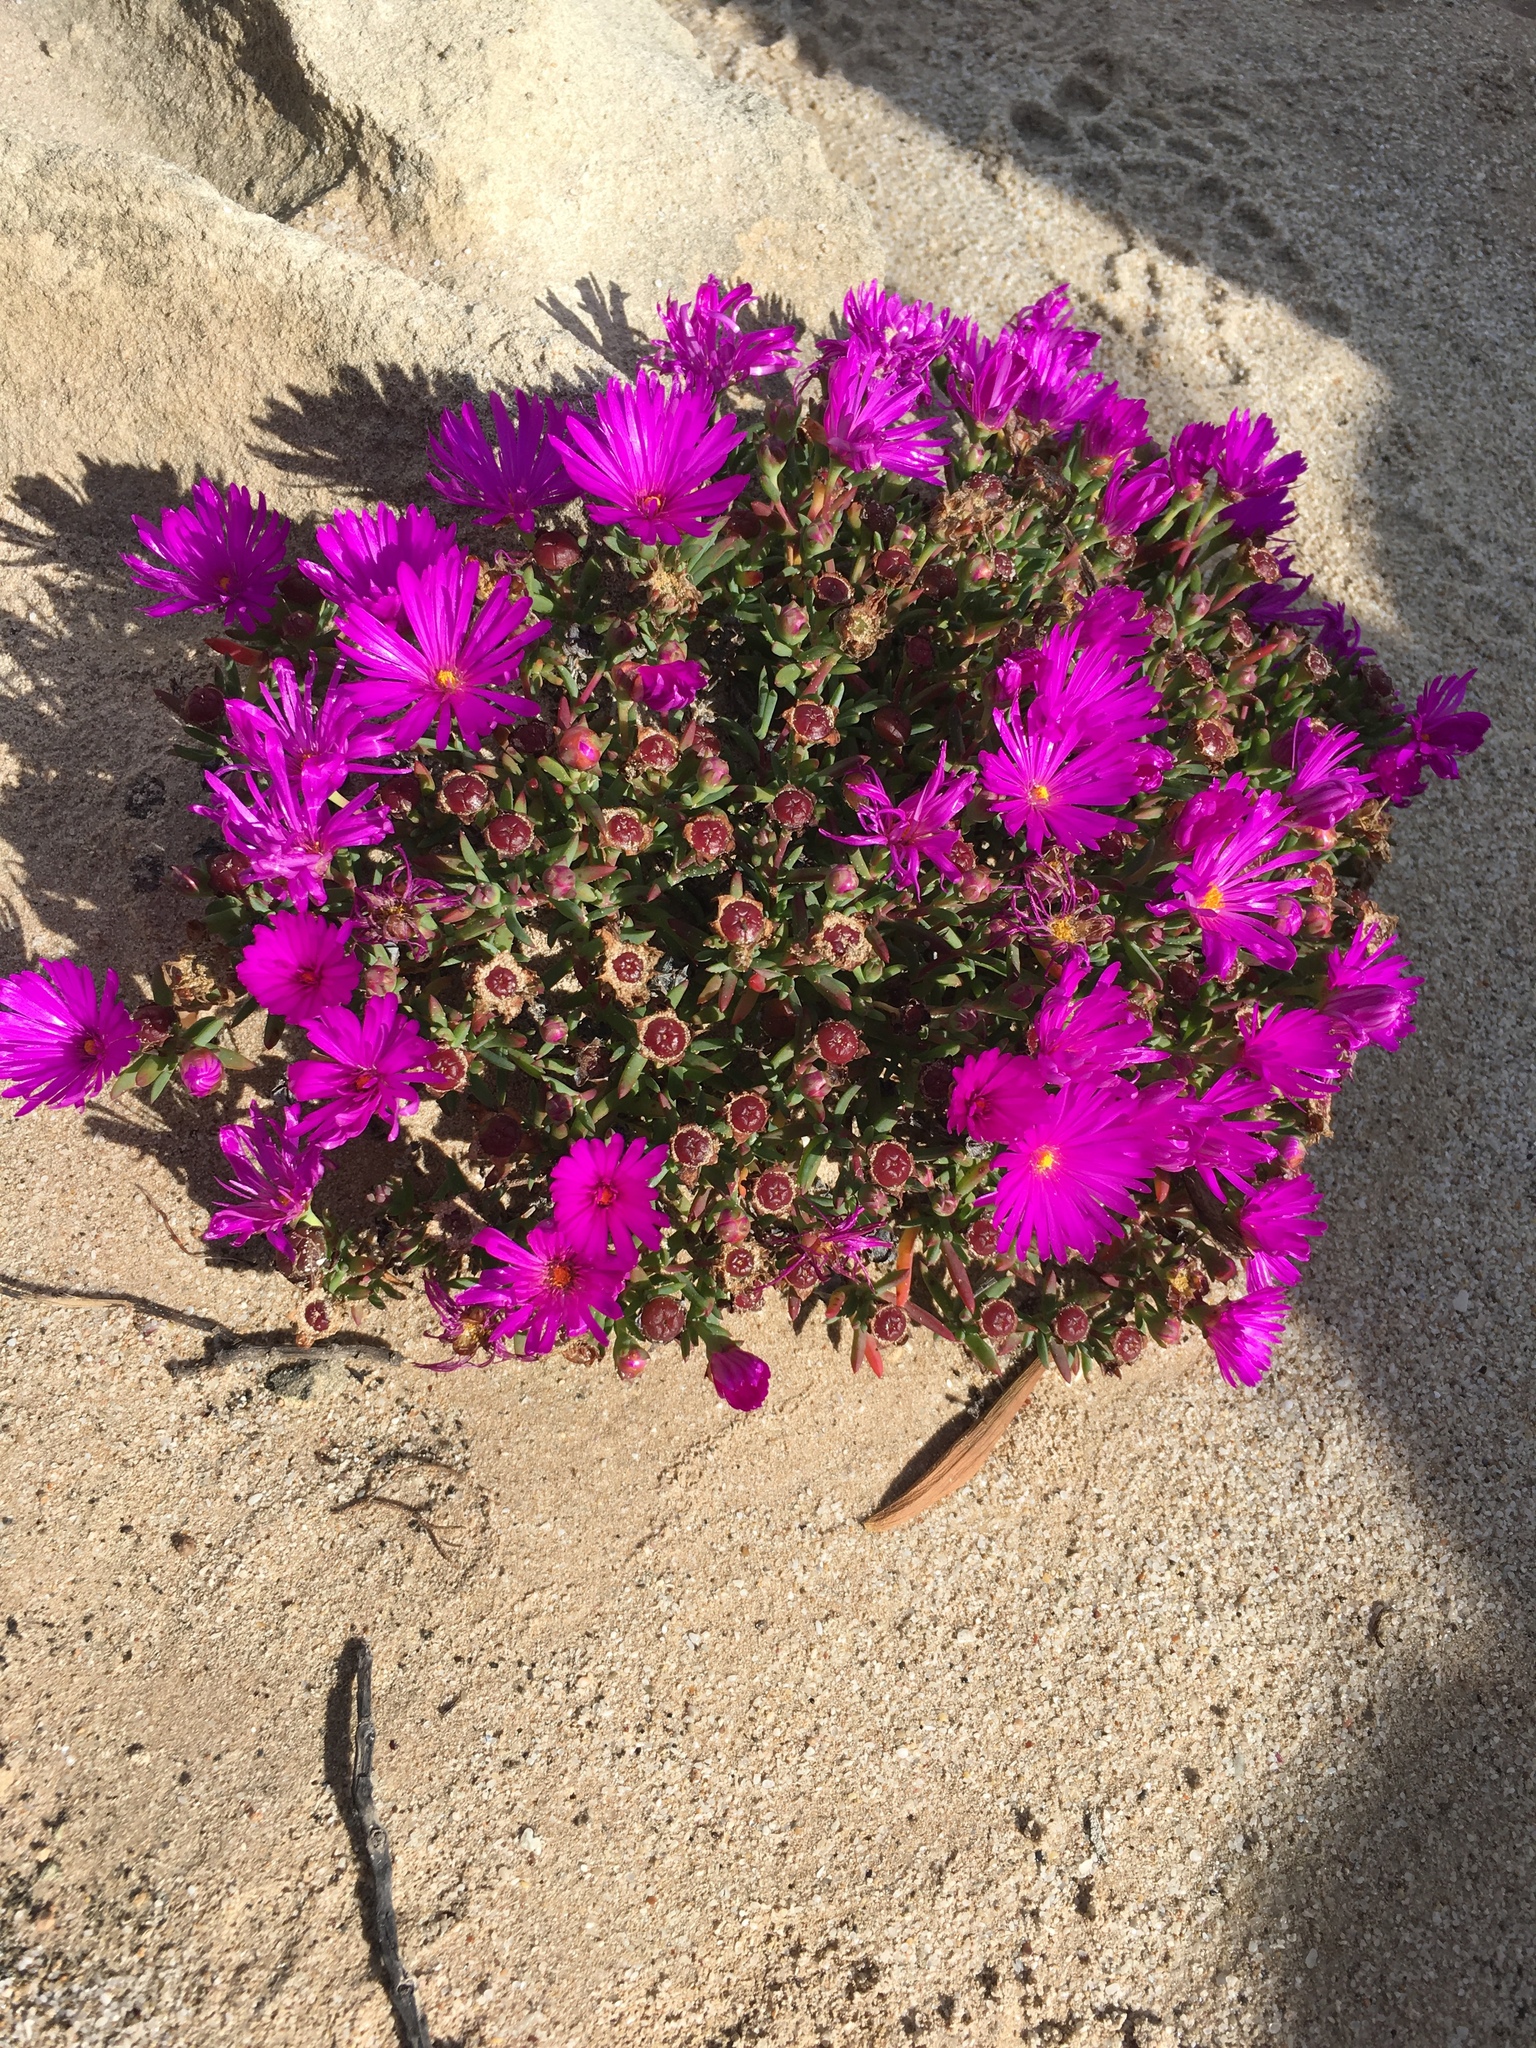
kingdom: Plantae
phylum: Tracheophyta
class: Magnoliopsida
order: Caryophyllales
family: Aizoaceae
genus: Lampranthus
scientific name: Lampranthus ceriseus
